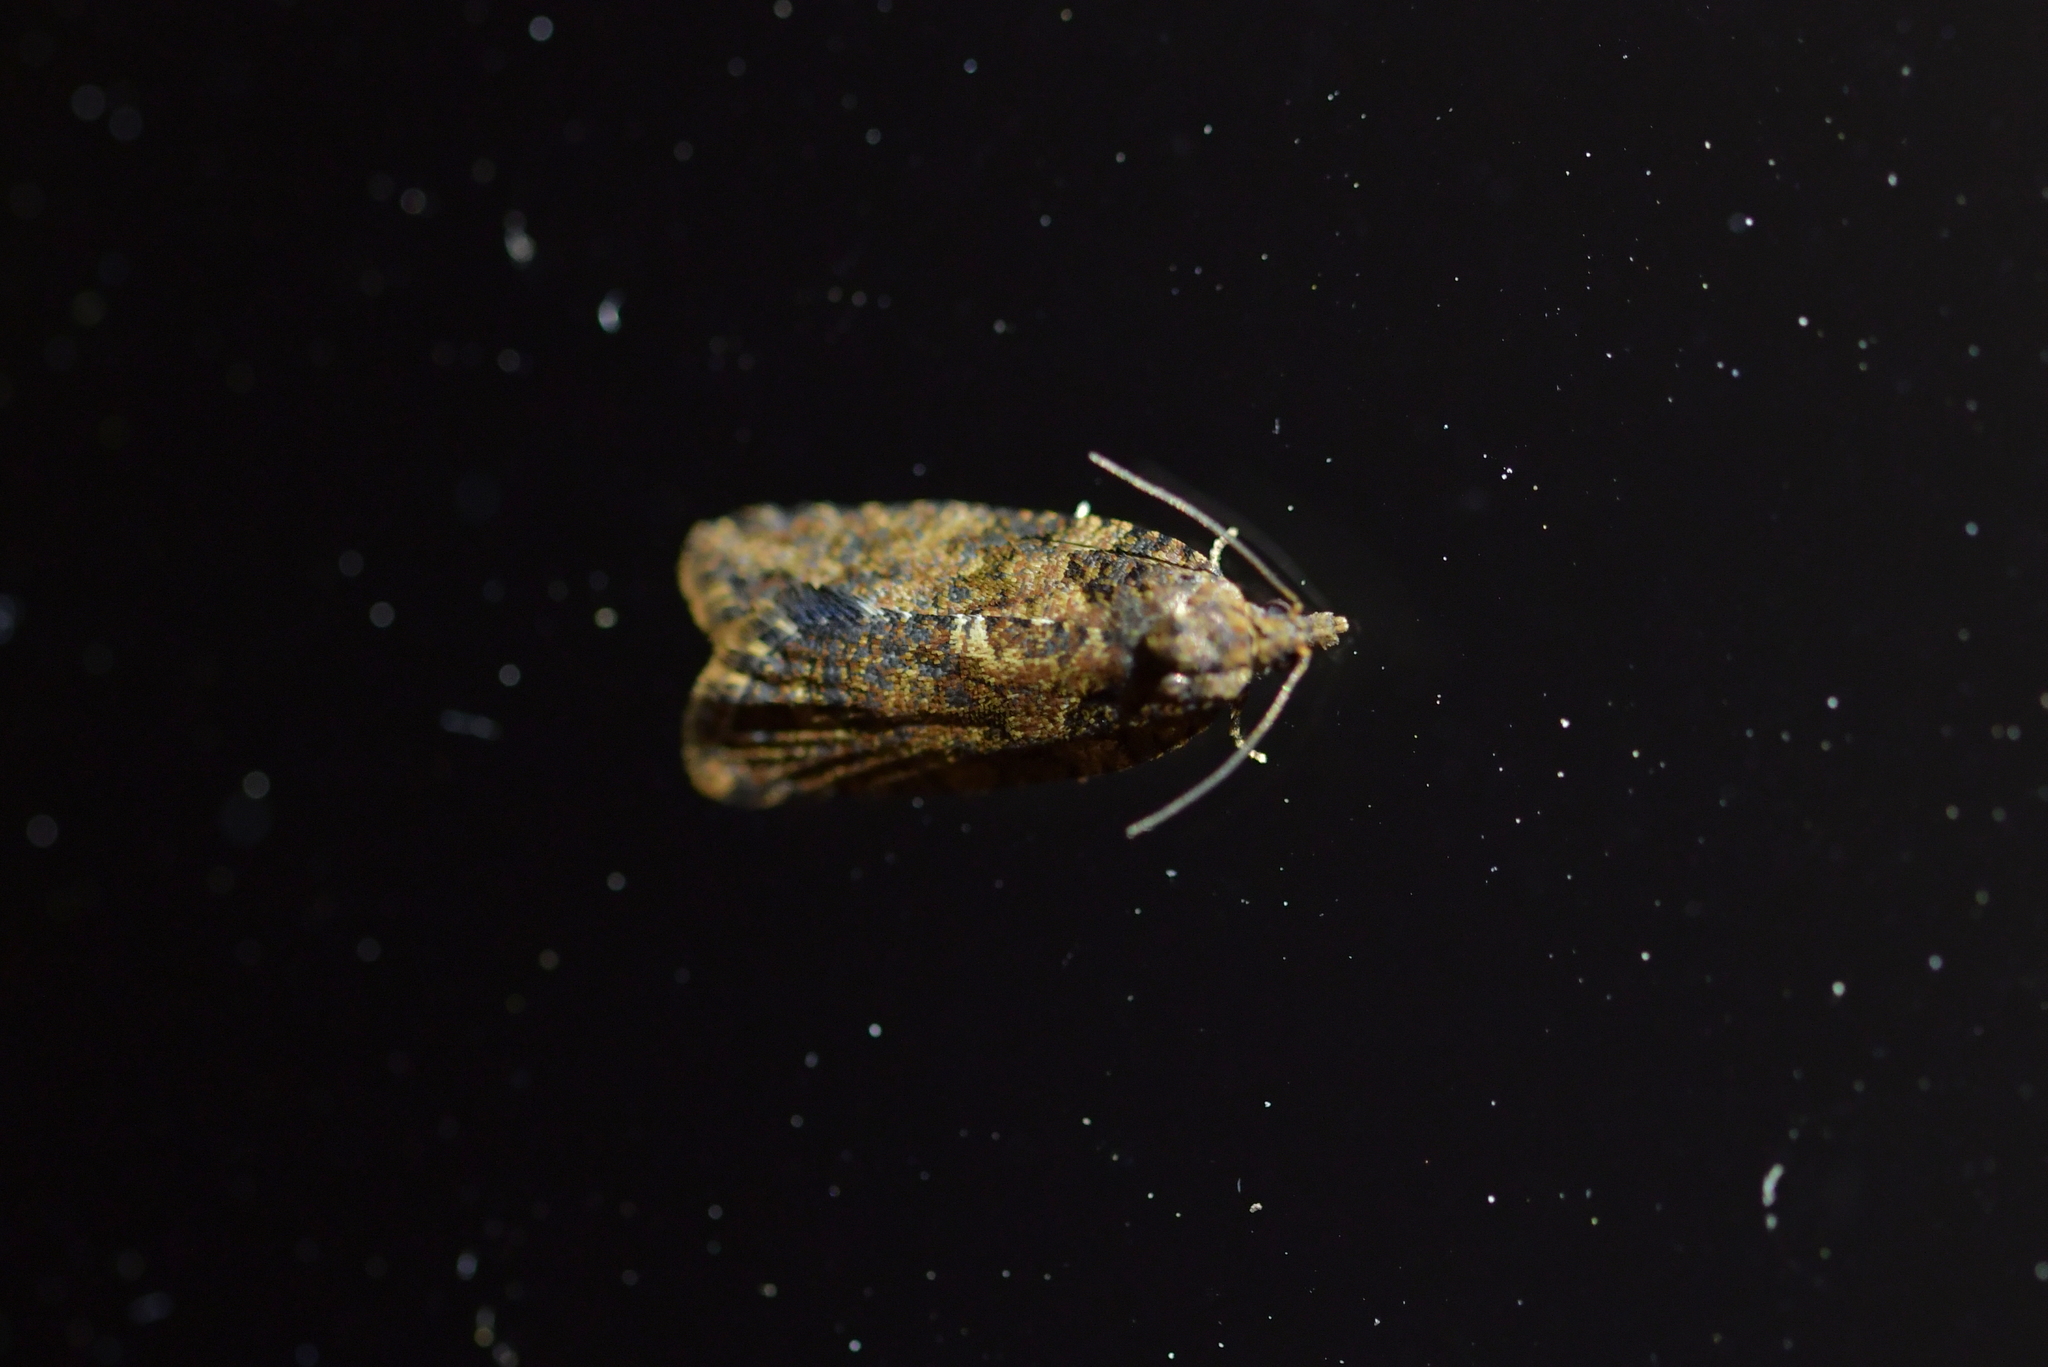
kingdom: Animalia
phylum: Arthropoda
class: Insecta
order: Lepidoptera
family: Tortricidae
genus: Capua
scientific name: Capua intractana
